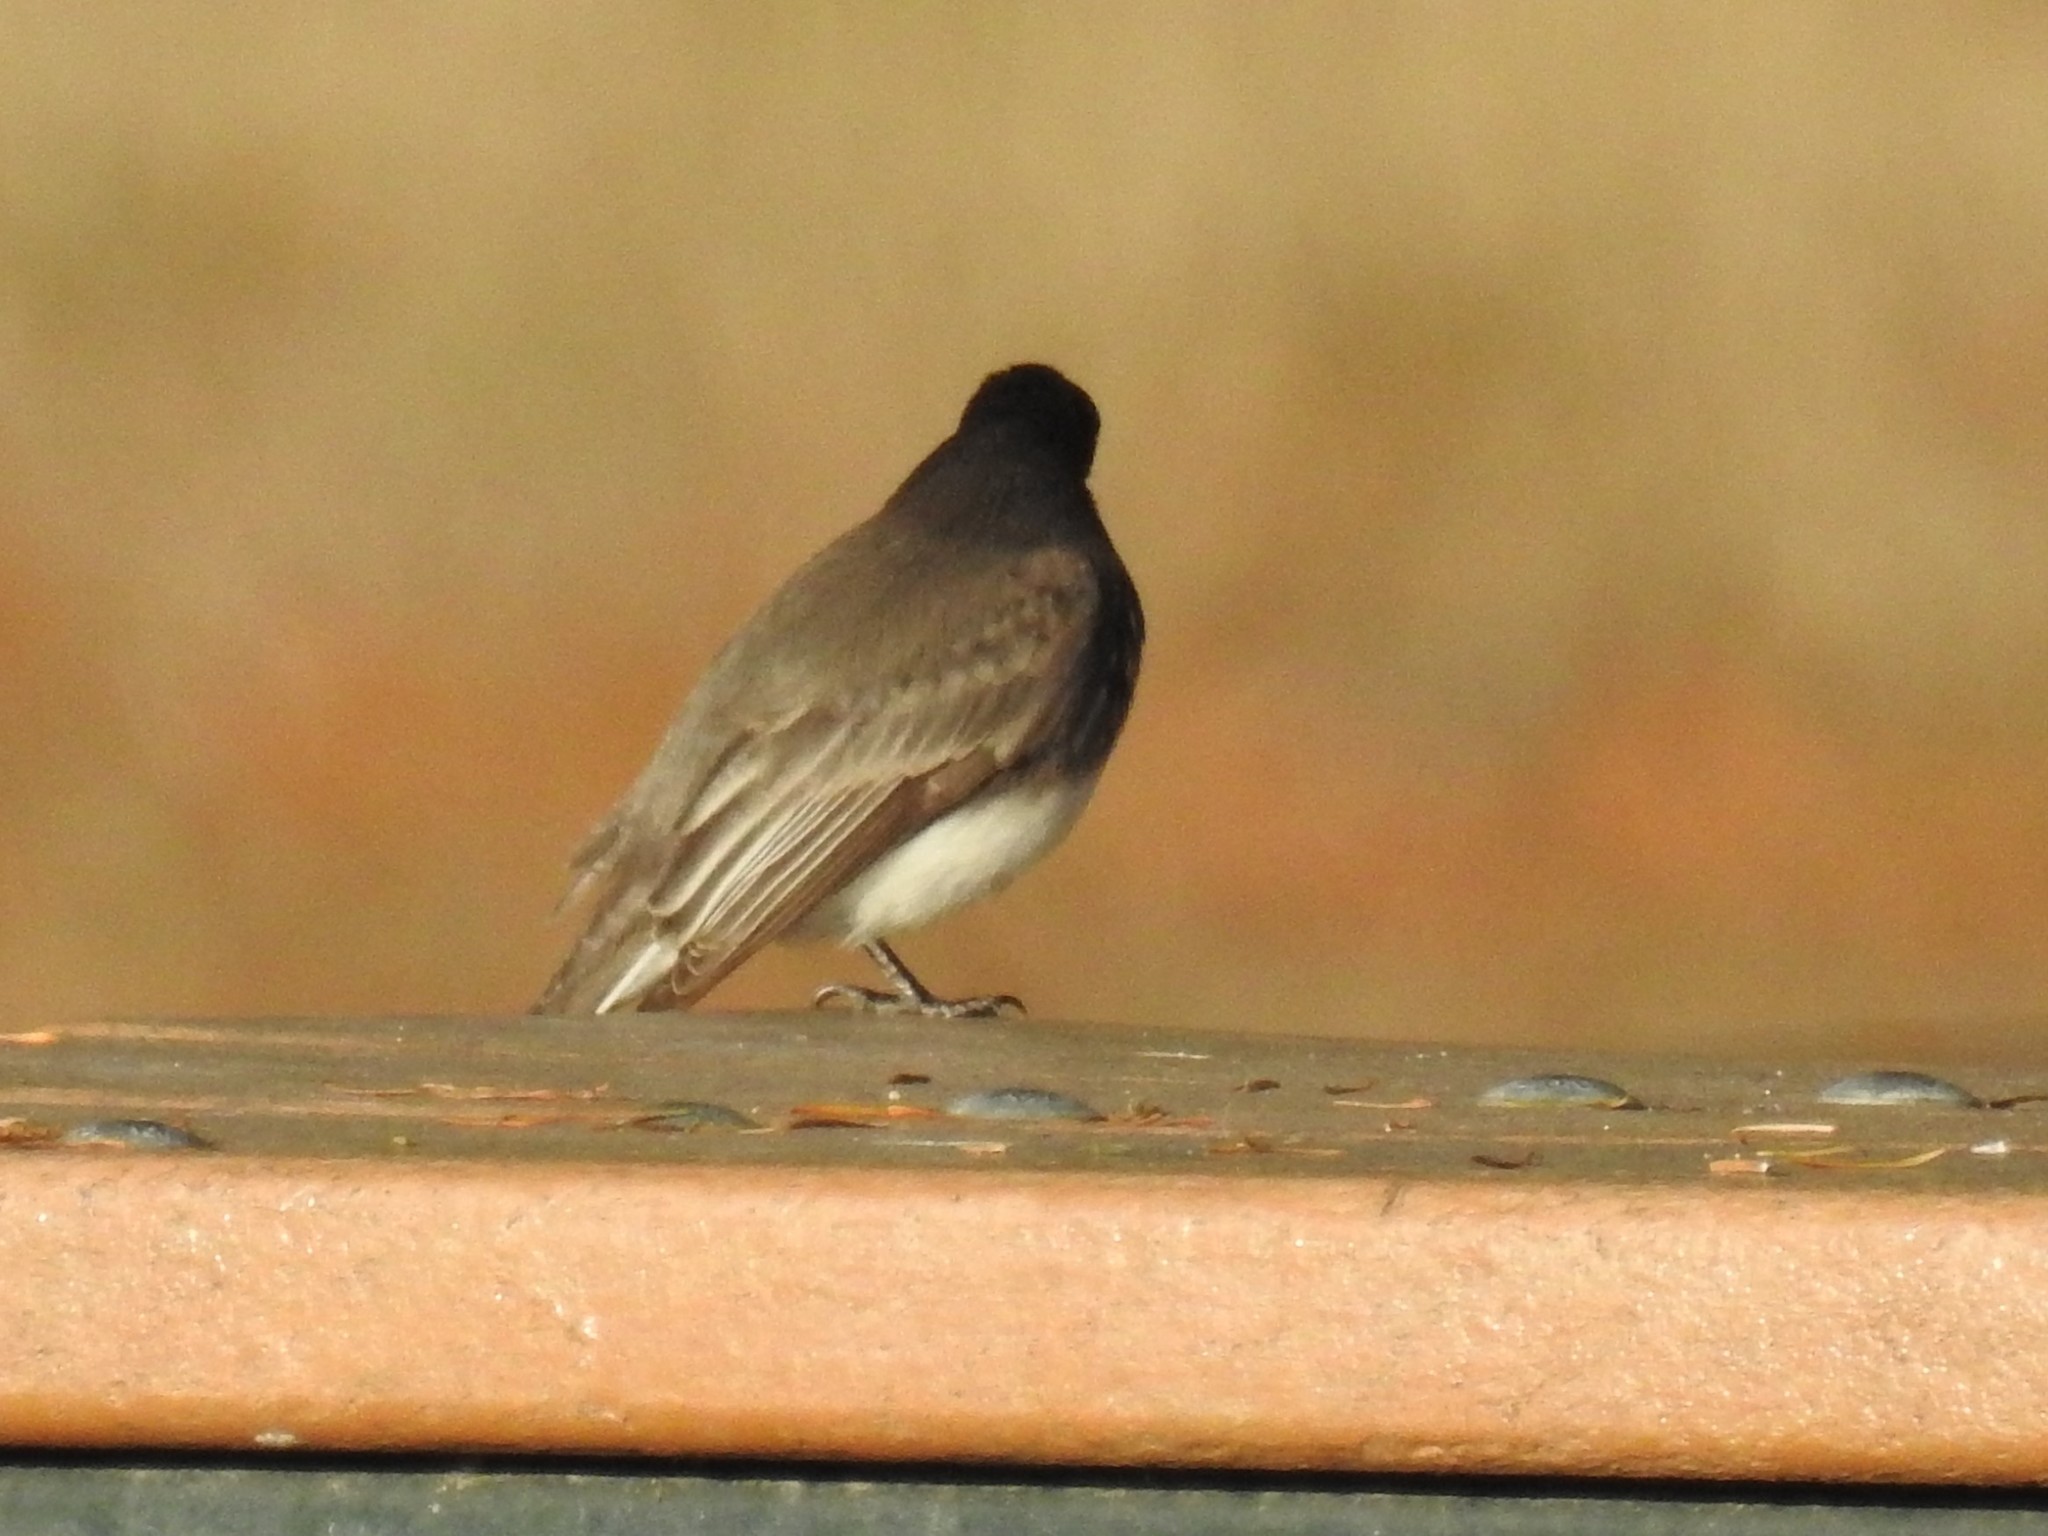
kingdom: Animalia
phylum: Chordata
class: Aves
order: Passeriformes
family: Tyrannidae
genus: Sayornis
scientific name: Sayornis nigricans
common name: Black phoebe
